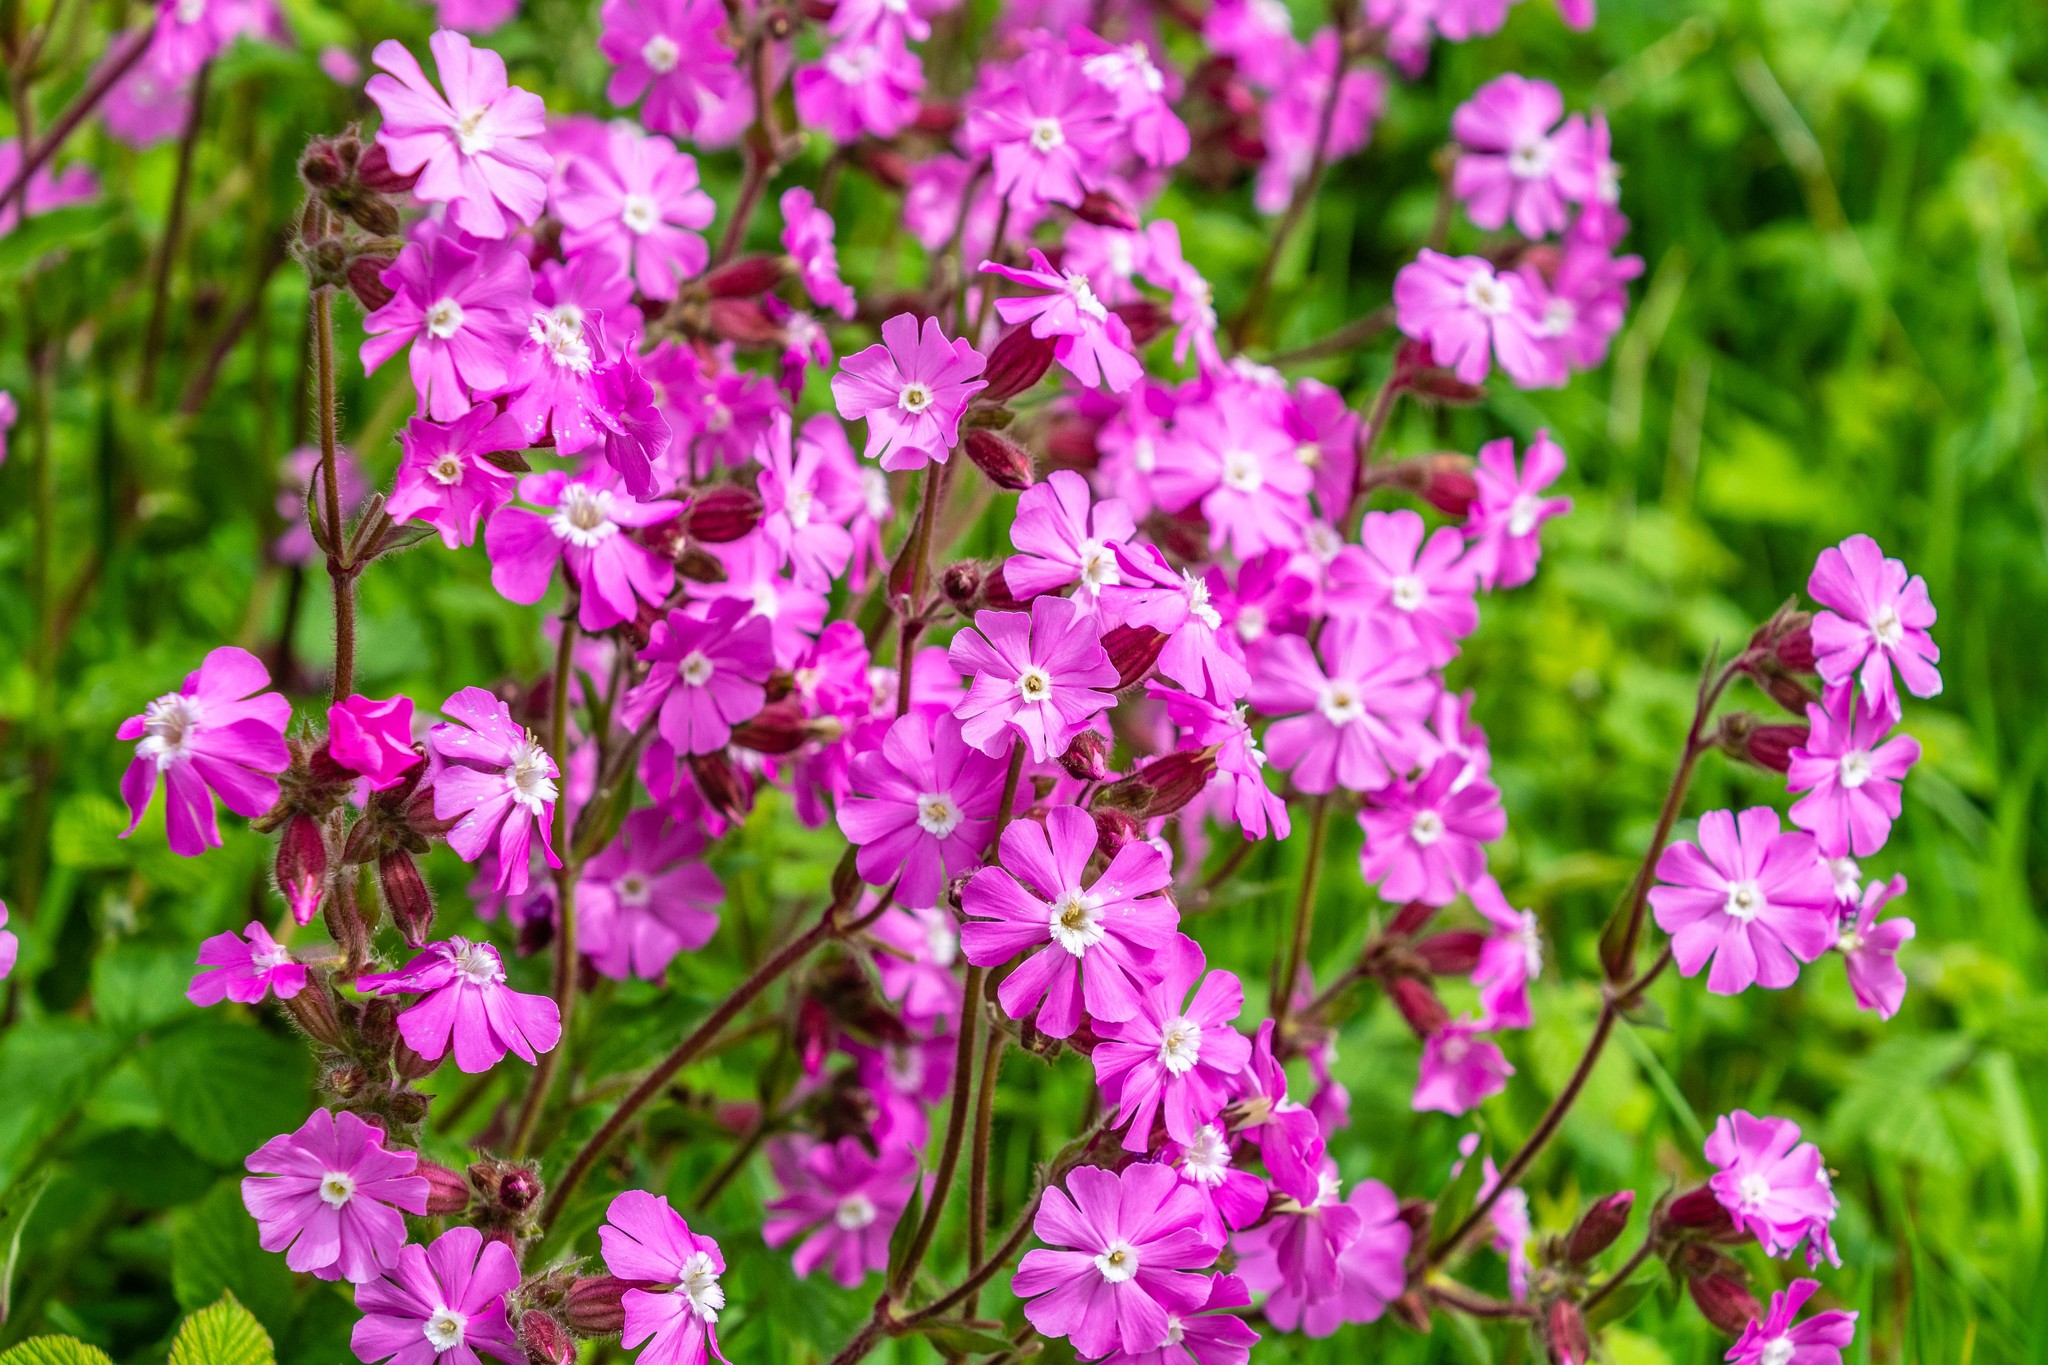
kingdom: Plantae
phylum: Tracheophyta
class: Magnoliopsida
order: Caryophyllales
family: Caryophyllaceae
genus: Silene
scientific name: Silene dioica
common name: Red campion
